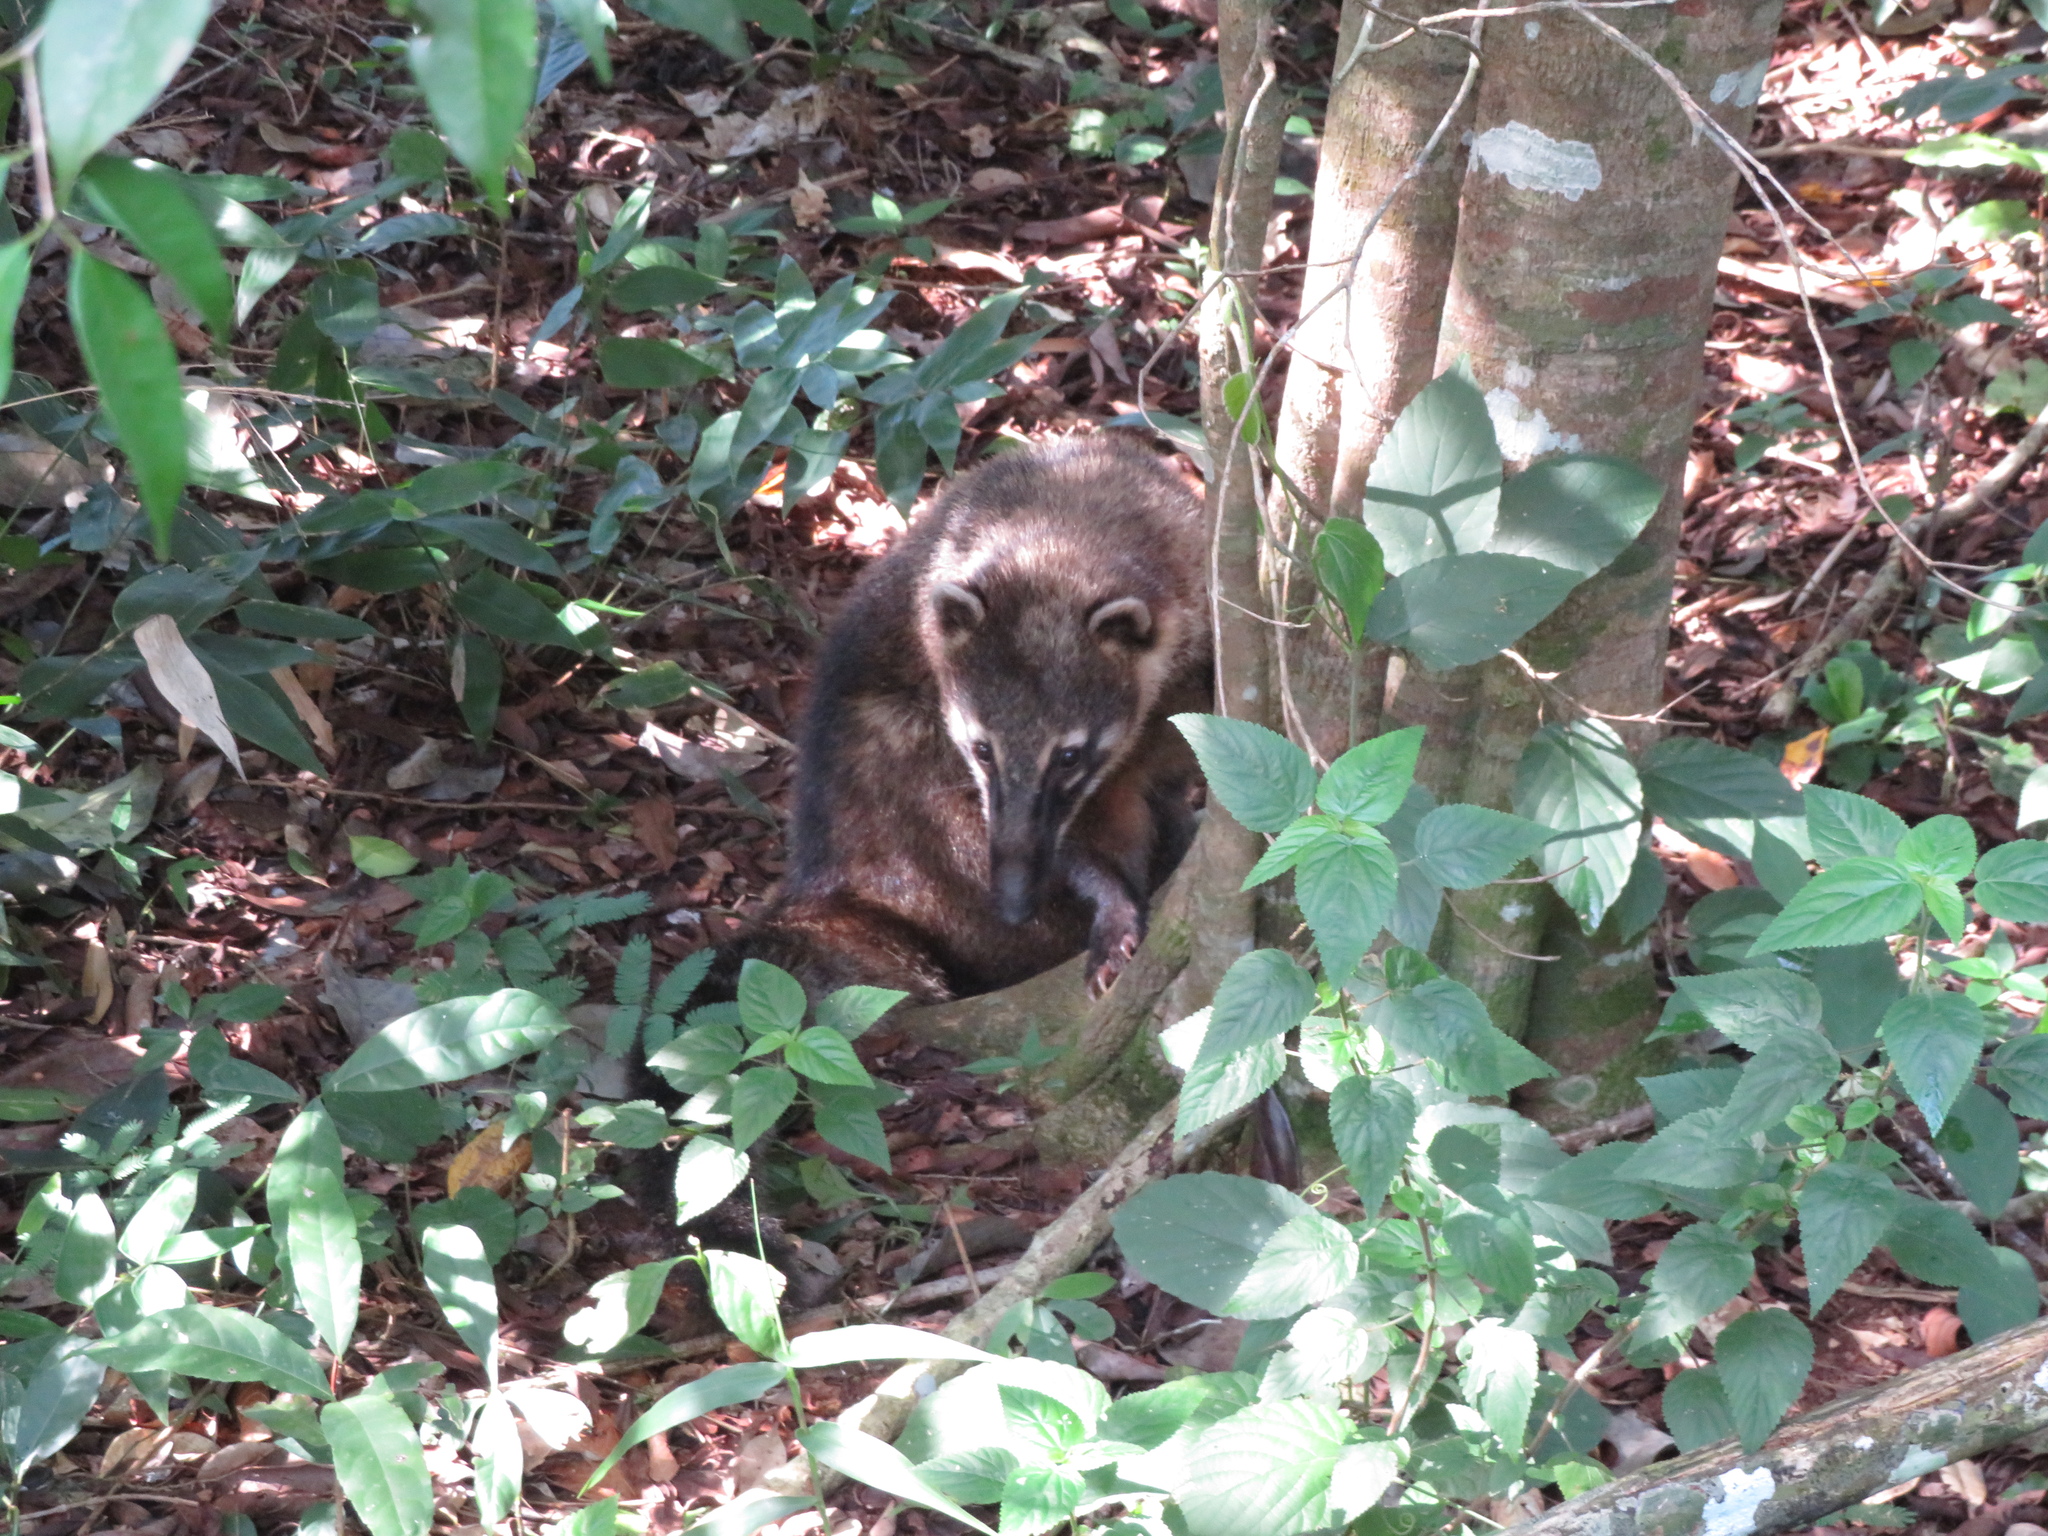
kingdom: Animalia
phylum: Chordata
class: Mammalia
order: Carnivora
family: Procyonidae
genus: Nasua
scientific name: Nasua nasua
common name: South american coati
